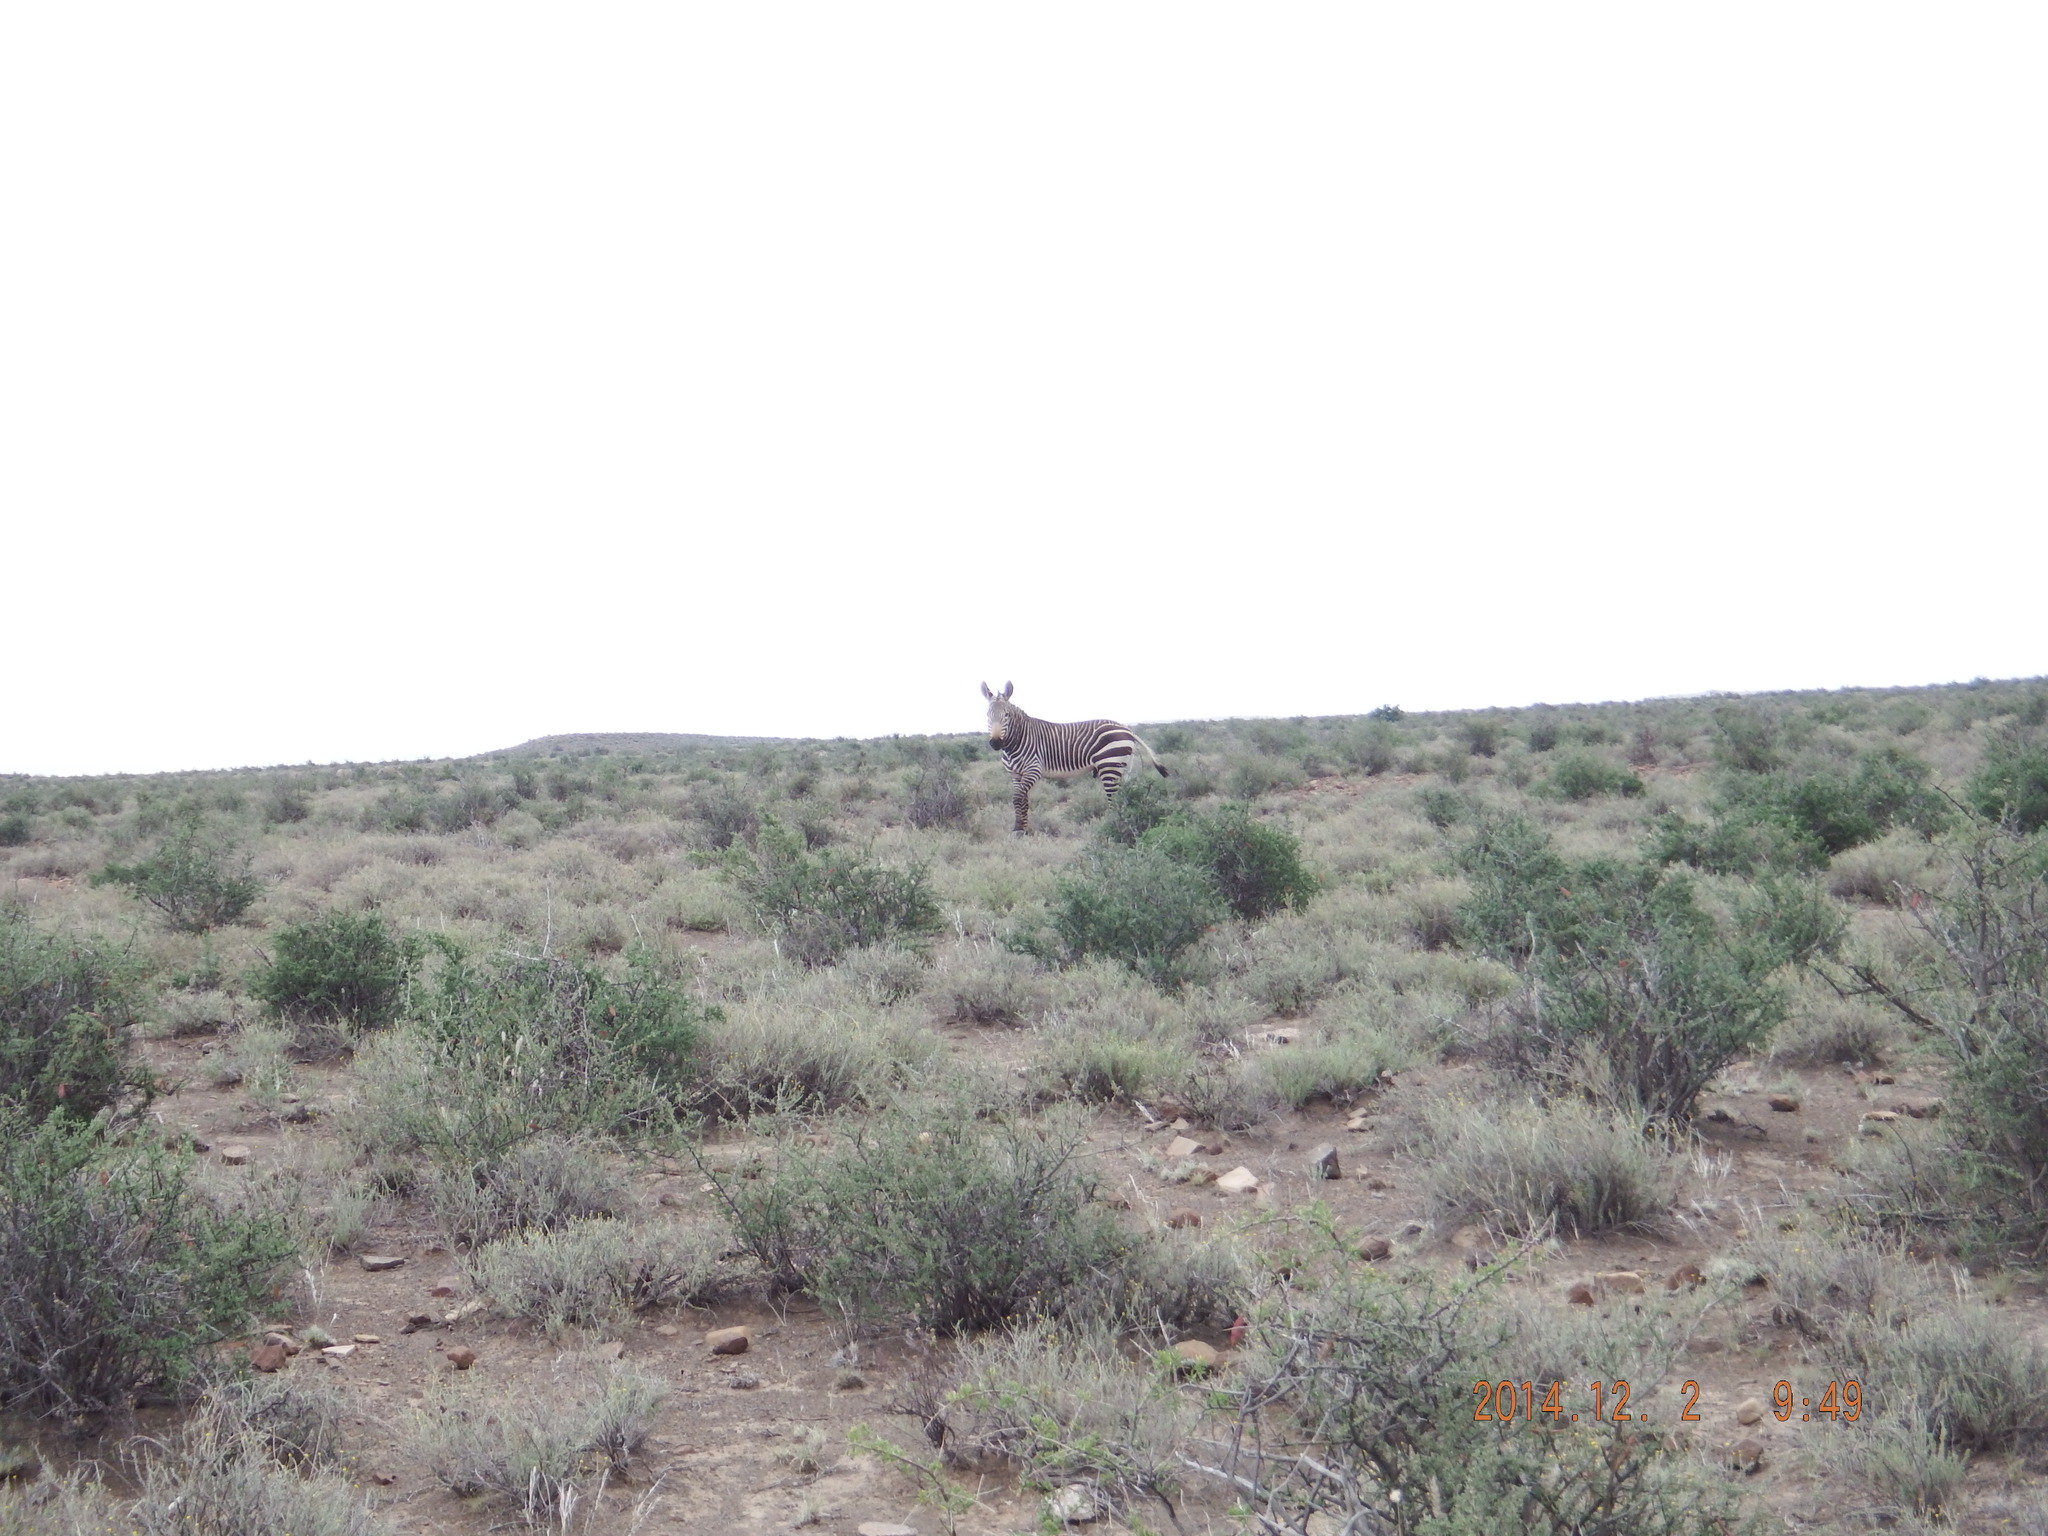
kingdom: Animalia
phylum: Chordata
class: Mammalia
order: Perissodactyla
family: Equidae
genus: Equus
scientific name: Equus zebra
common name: Mountain zebra
